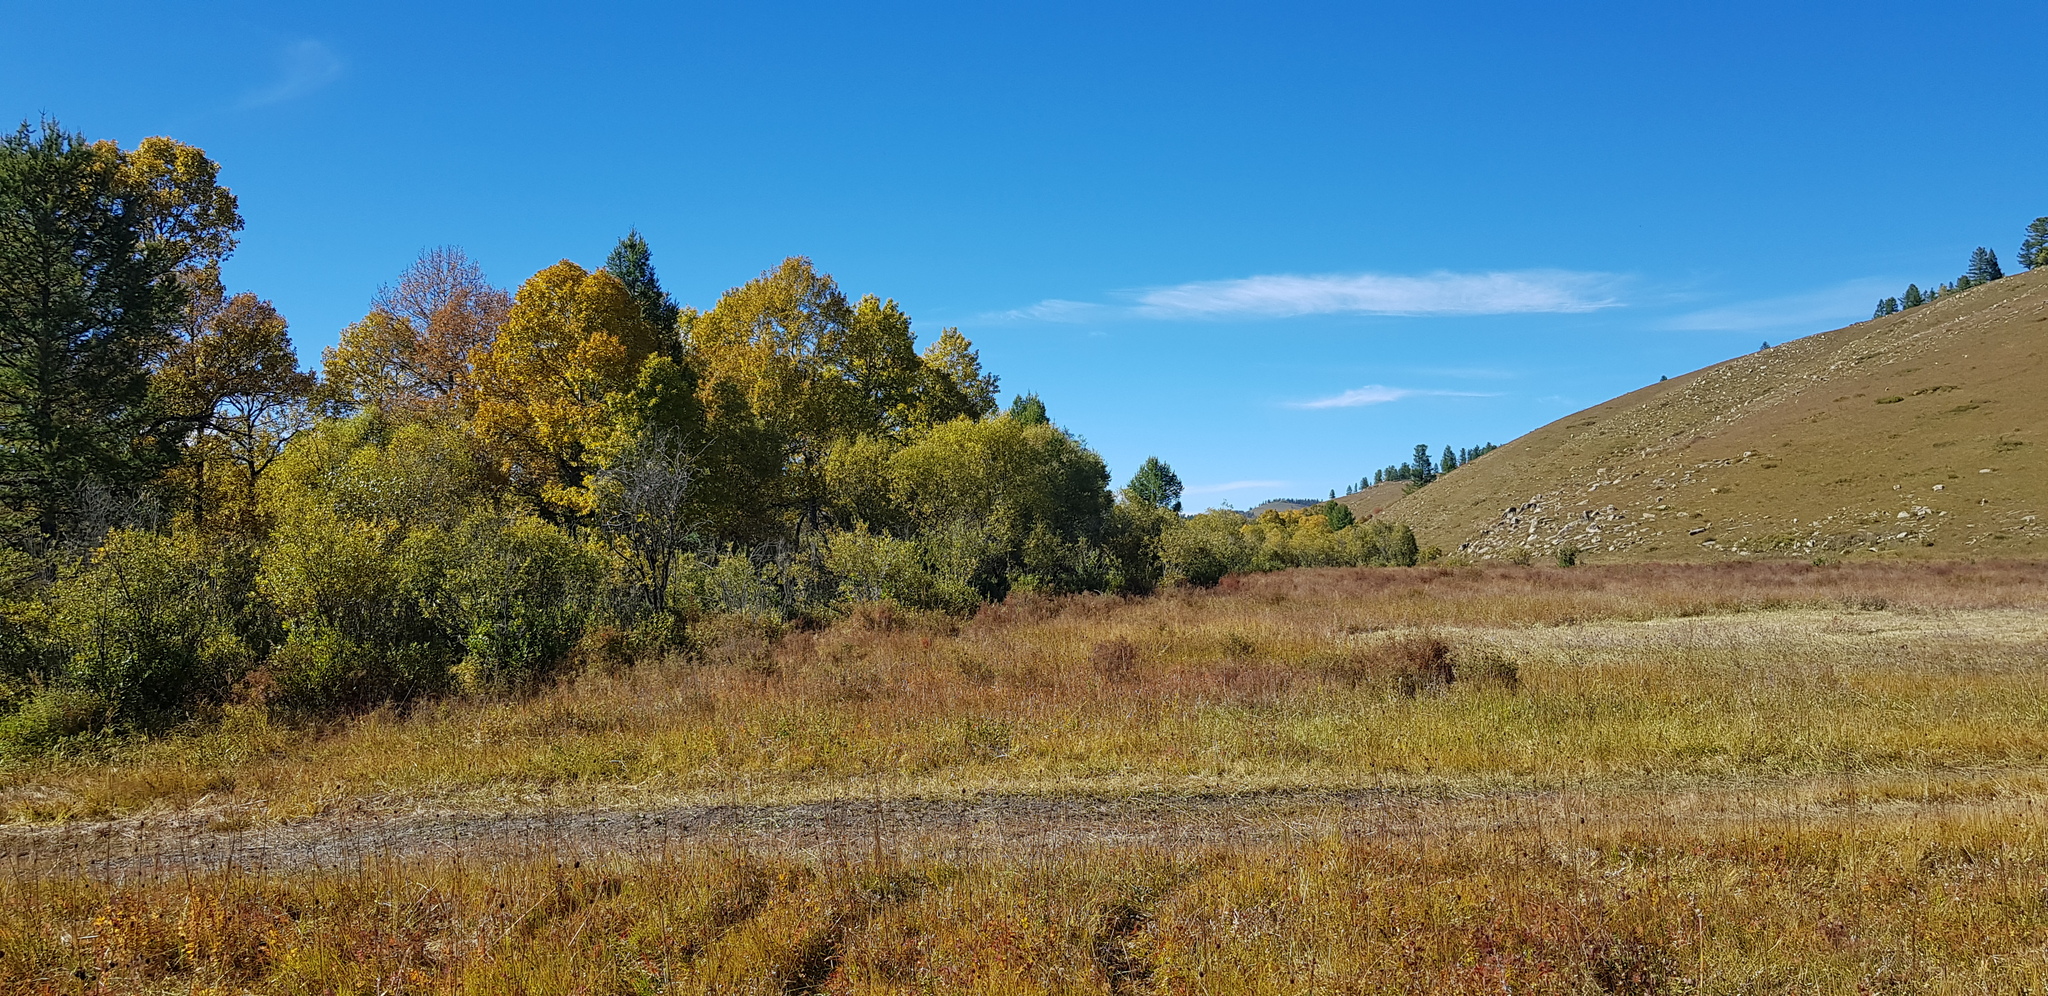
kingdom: Plantae
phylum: Tracheophyta
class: Magnoliopsida
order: Fagales
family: Betulaceae
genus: Betula
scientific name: Betula pendula
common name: Silver birch
